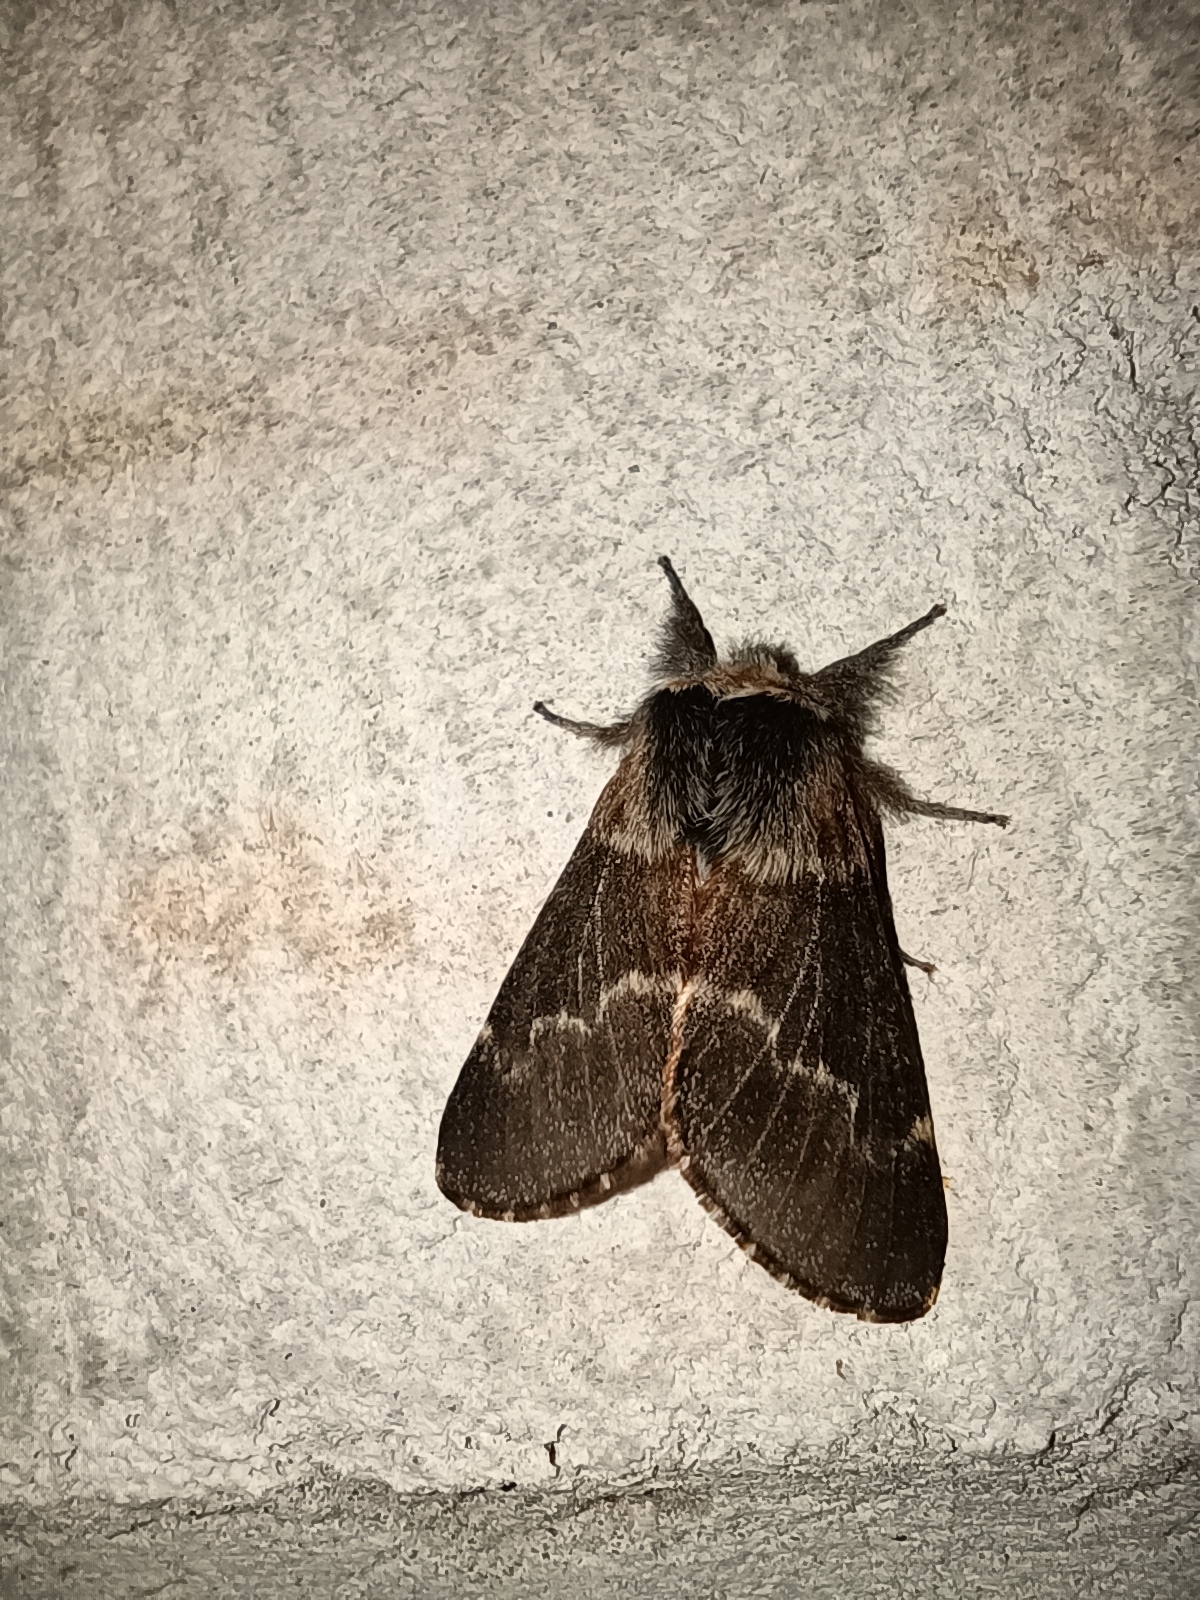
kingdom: Animalia
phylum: Arthropoda
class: Insecta
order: Lepidoptera
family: Lasiocampidae
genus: Poecilocampa
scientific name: Poecilocampa populi
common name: December moth
